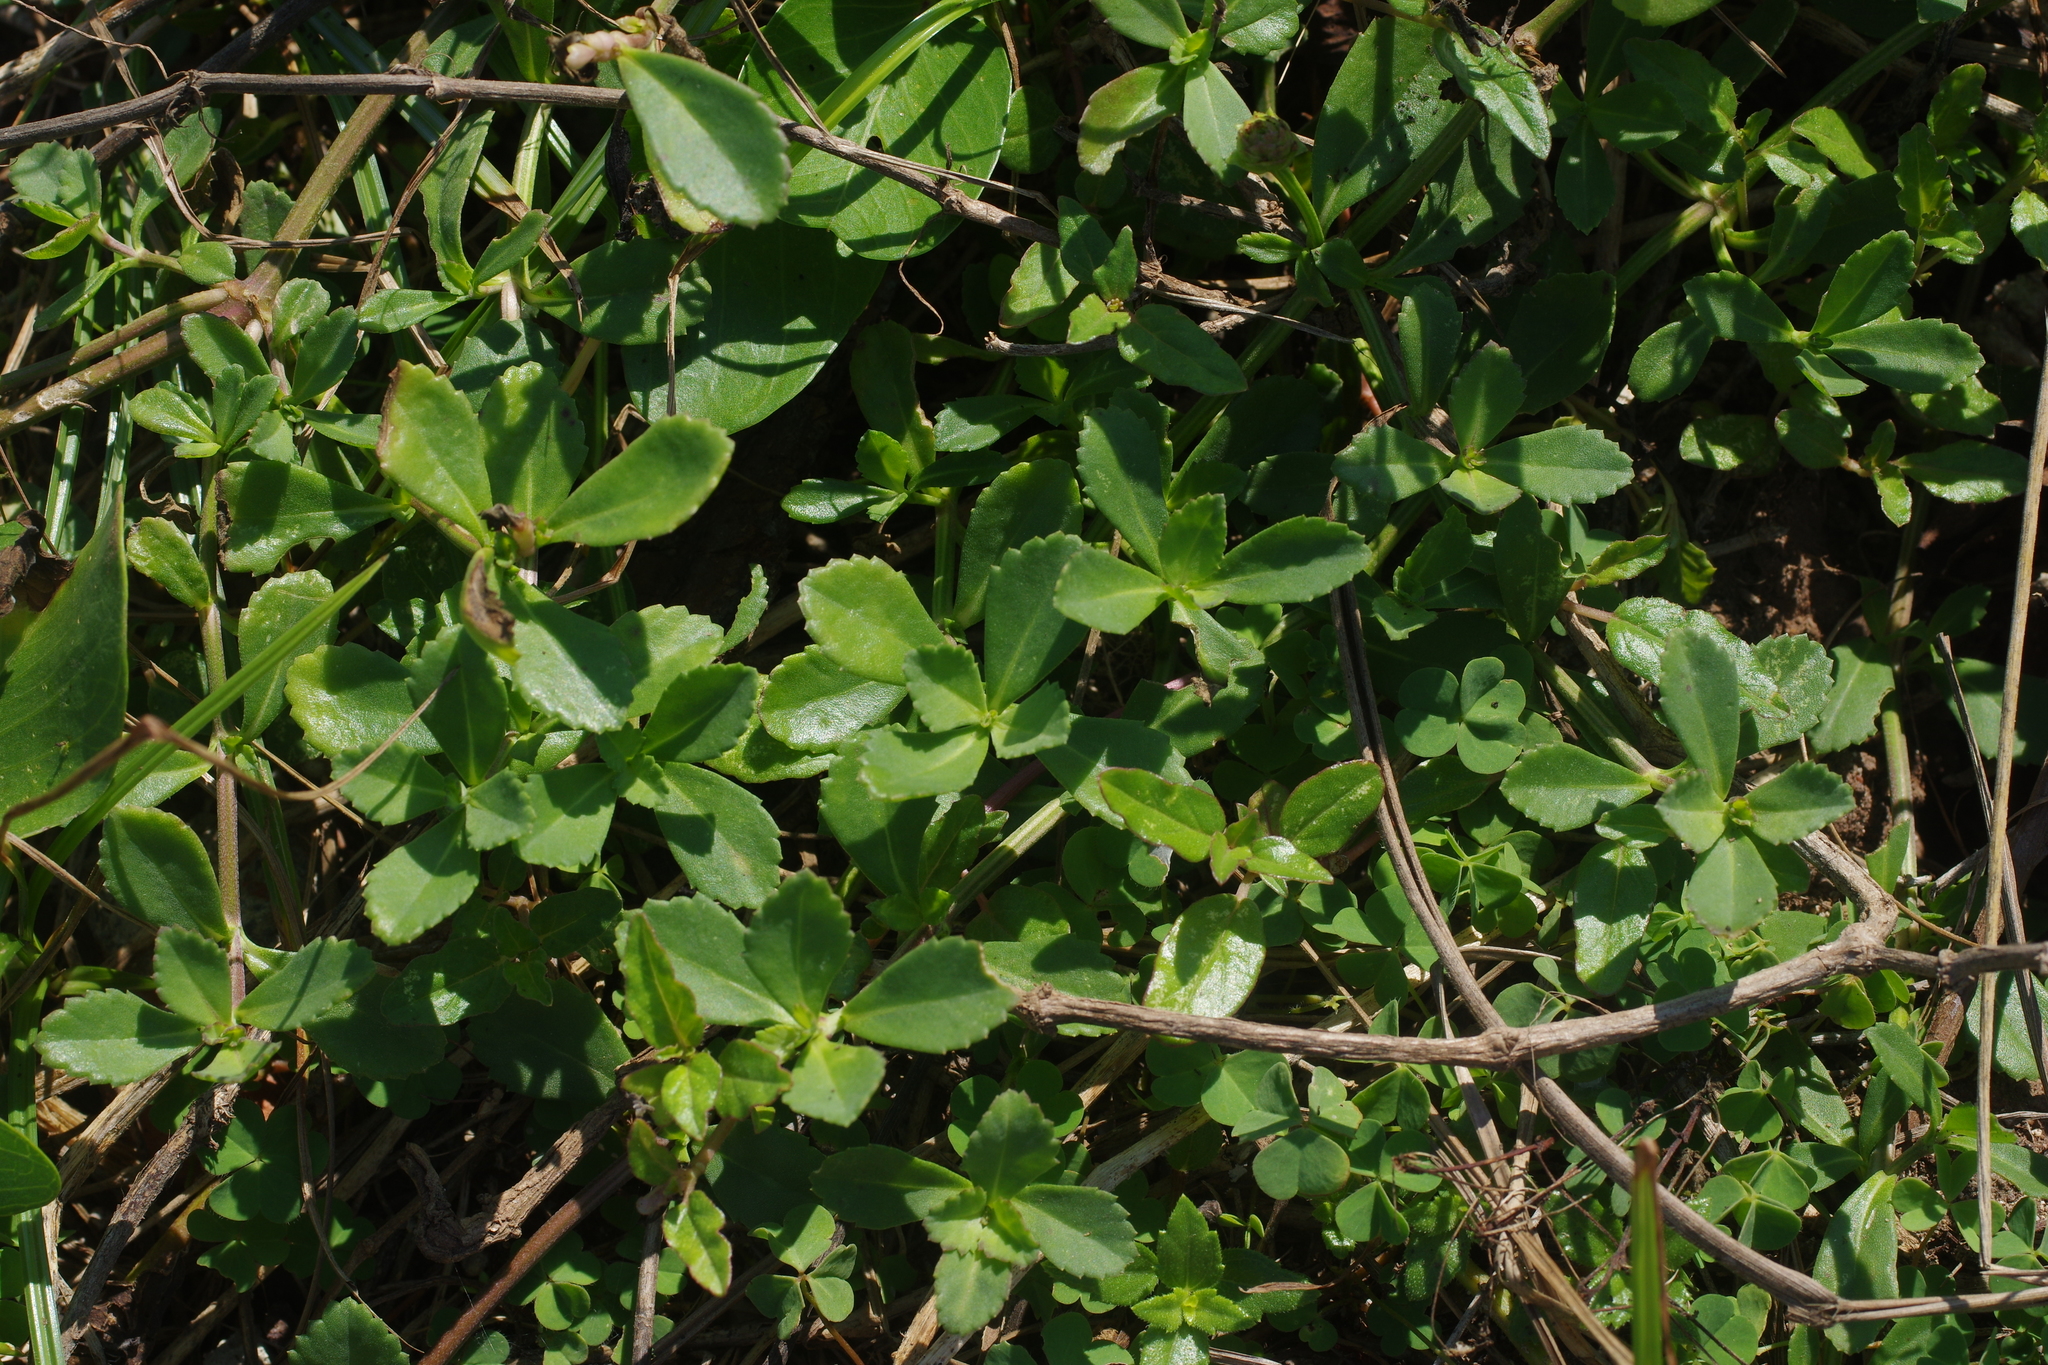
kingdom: Plantae
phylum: Tracheophyta
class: Magnoliopsida
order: Asterales
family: Asteraceae
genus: Melanthera
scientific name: Melanthera prostrata
